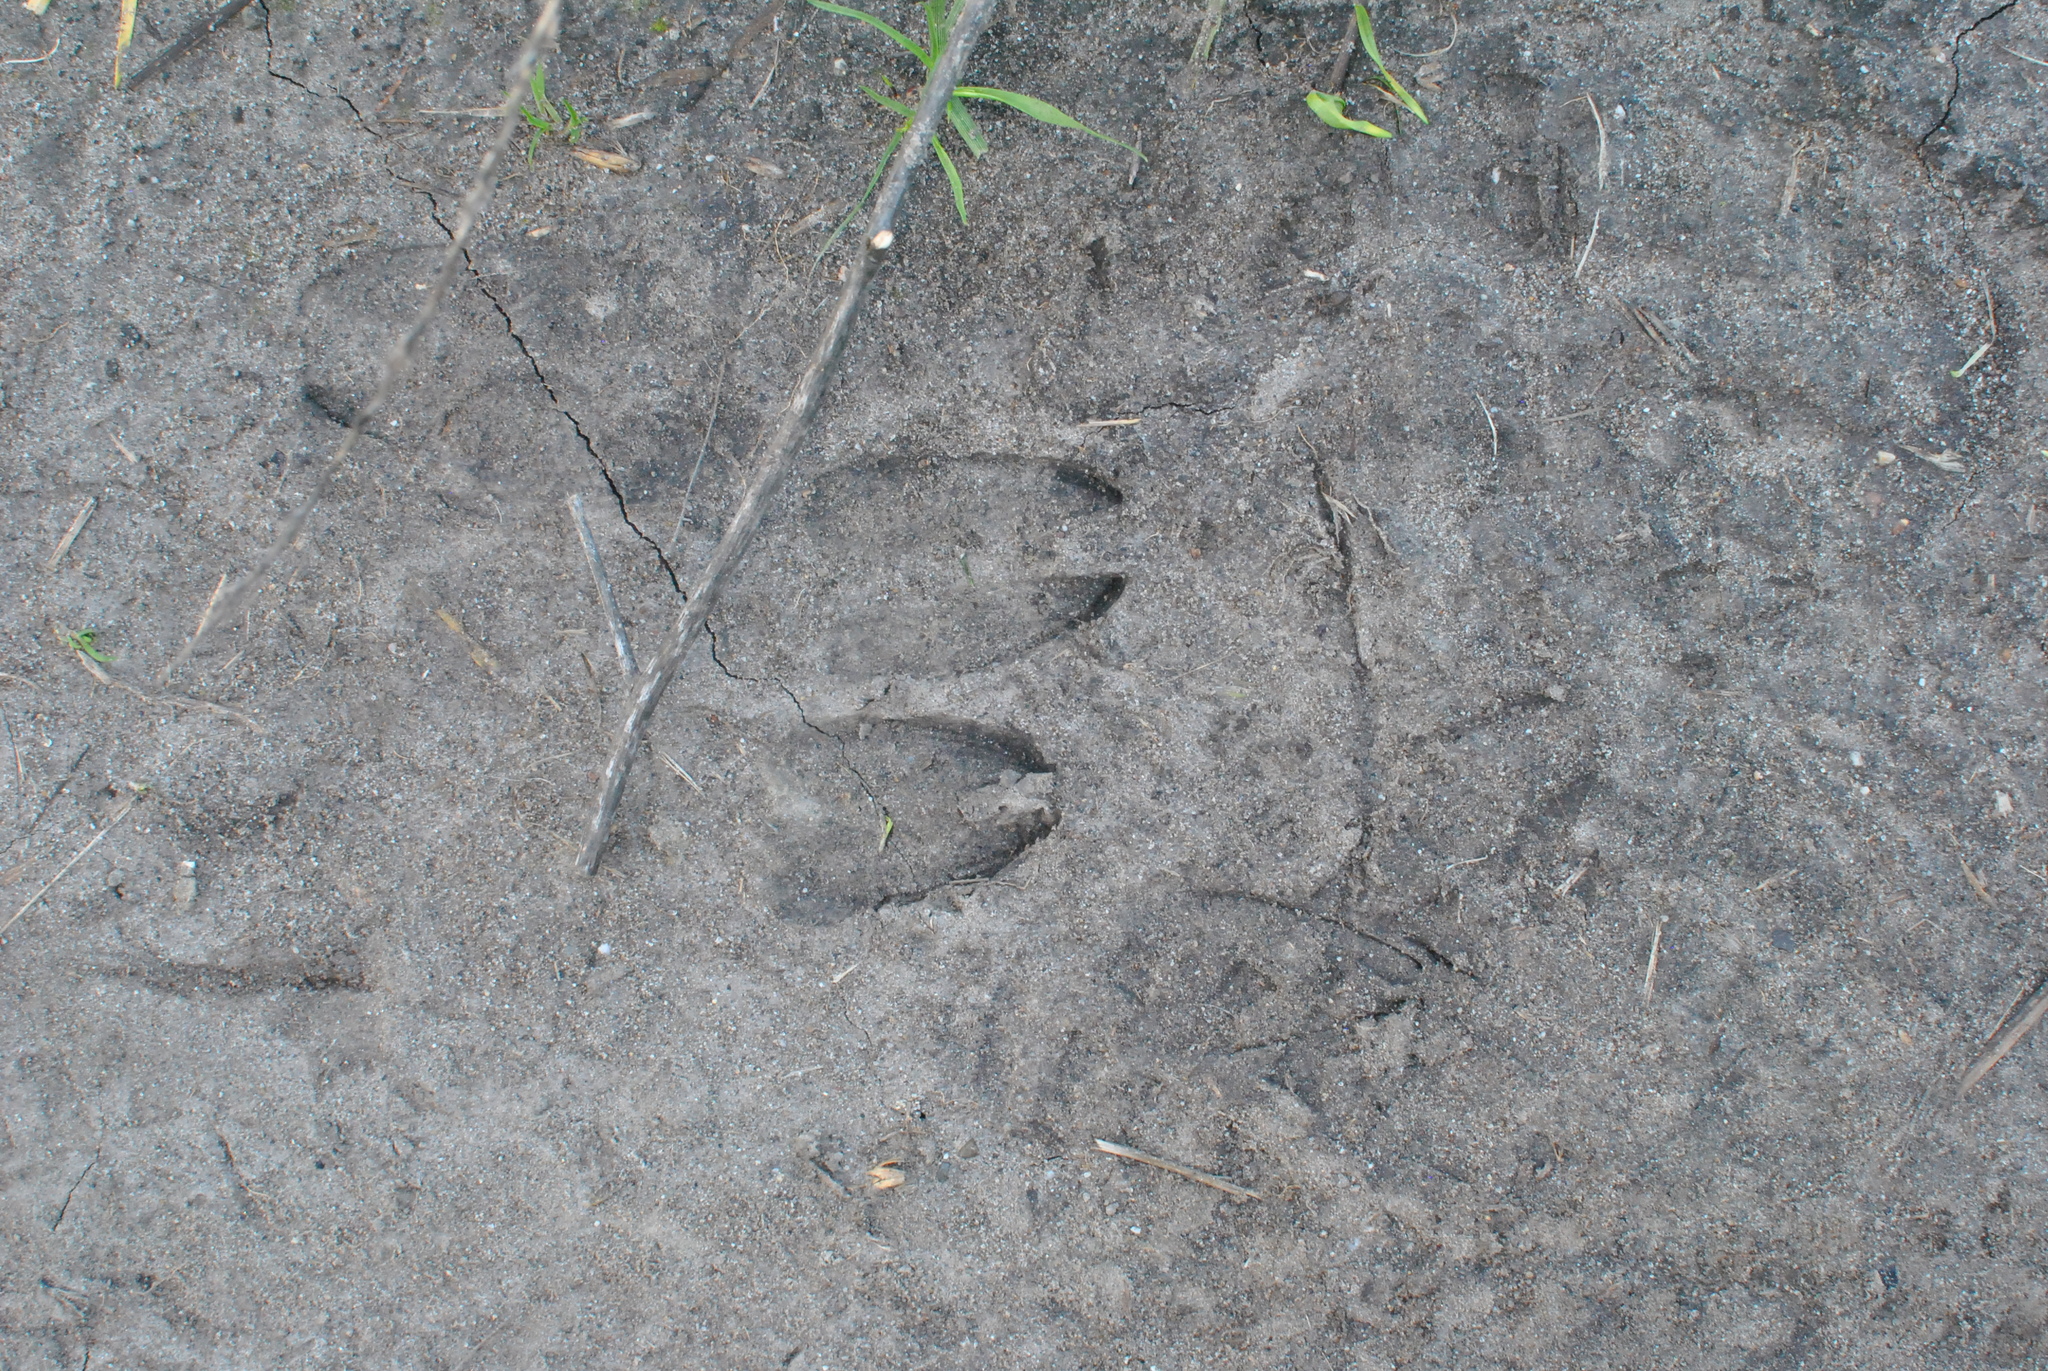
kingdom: Animalia
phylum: Chordata
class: Mammalia
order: Artiodactyla
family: Cervidae
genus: Odocoileus
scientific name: Odocoileus hemionus
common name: Mule deer
